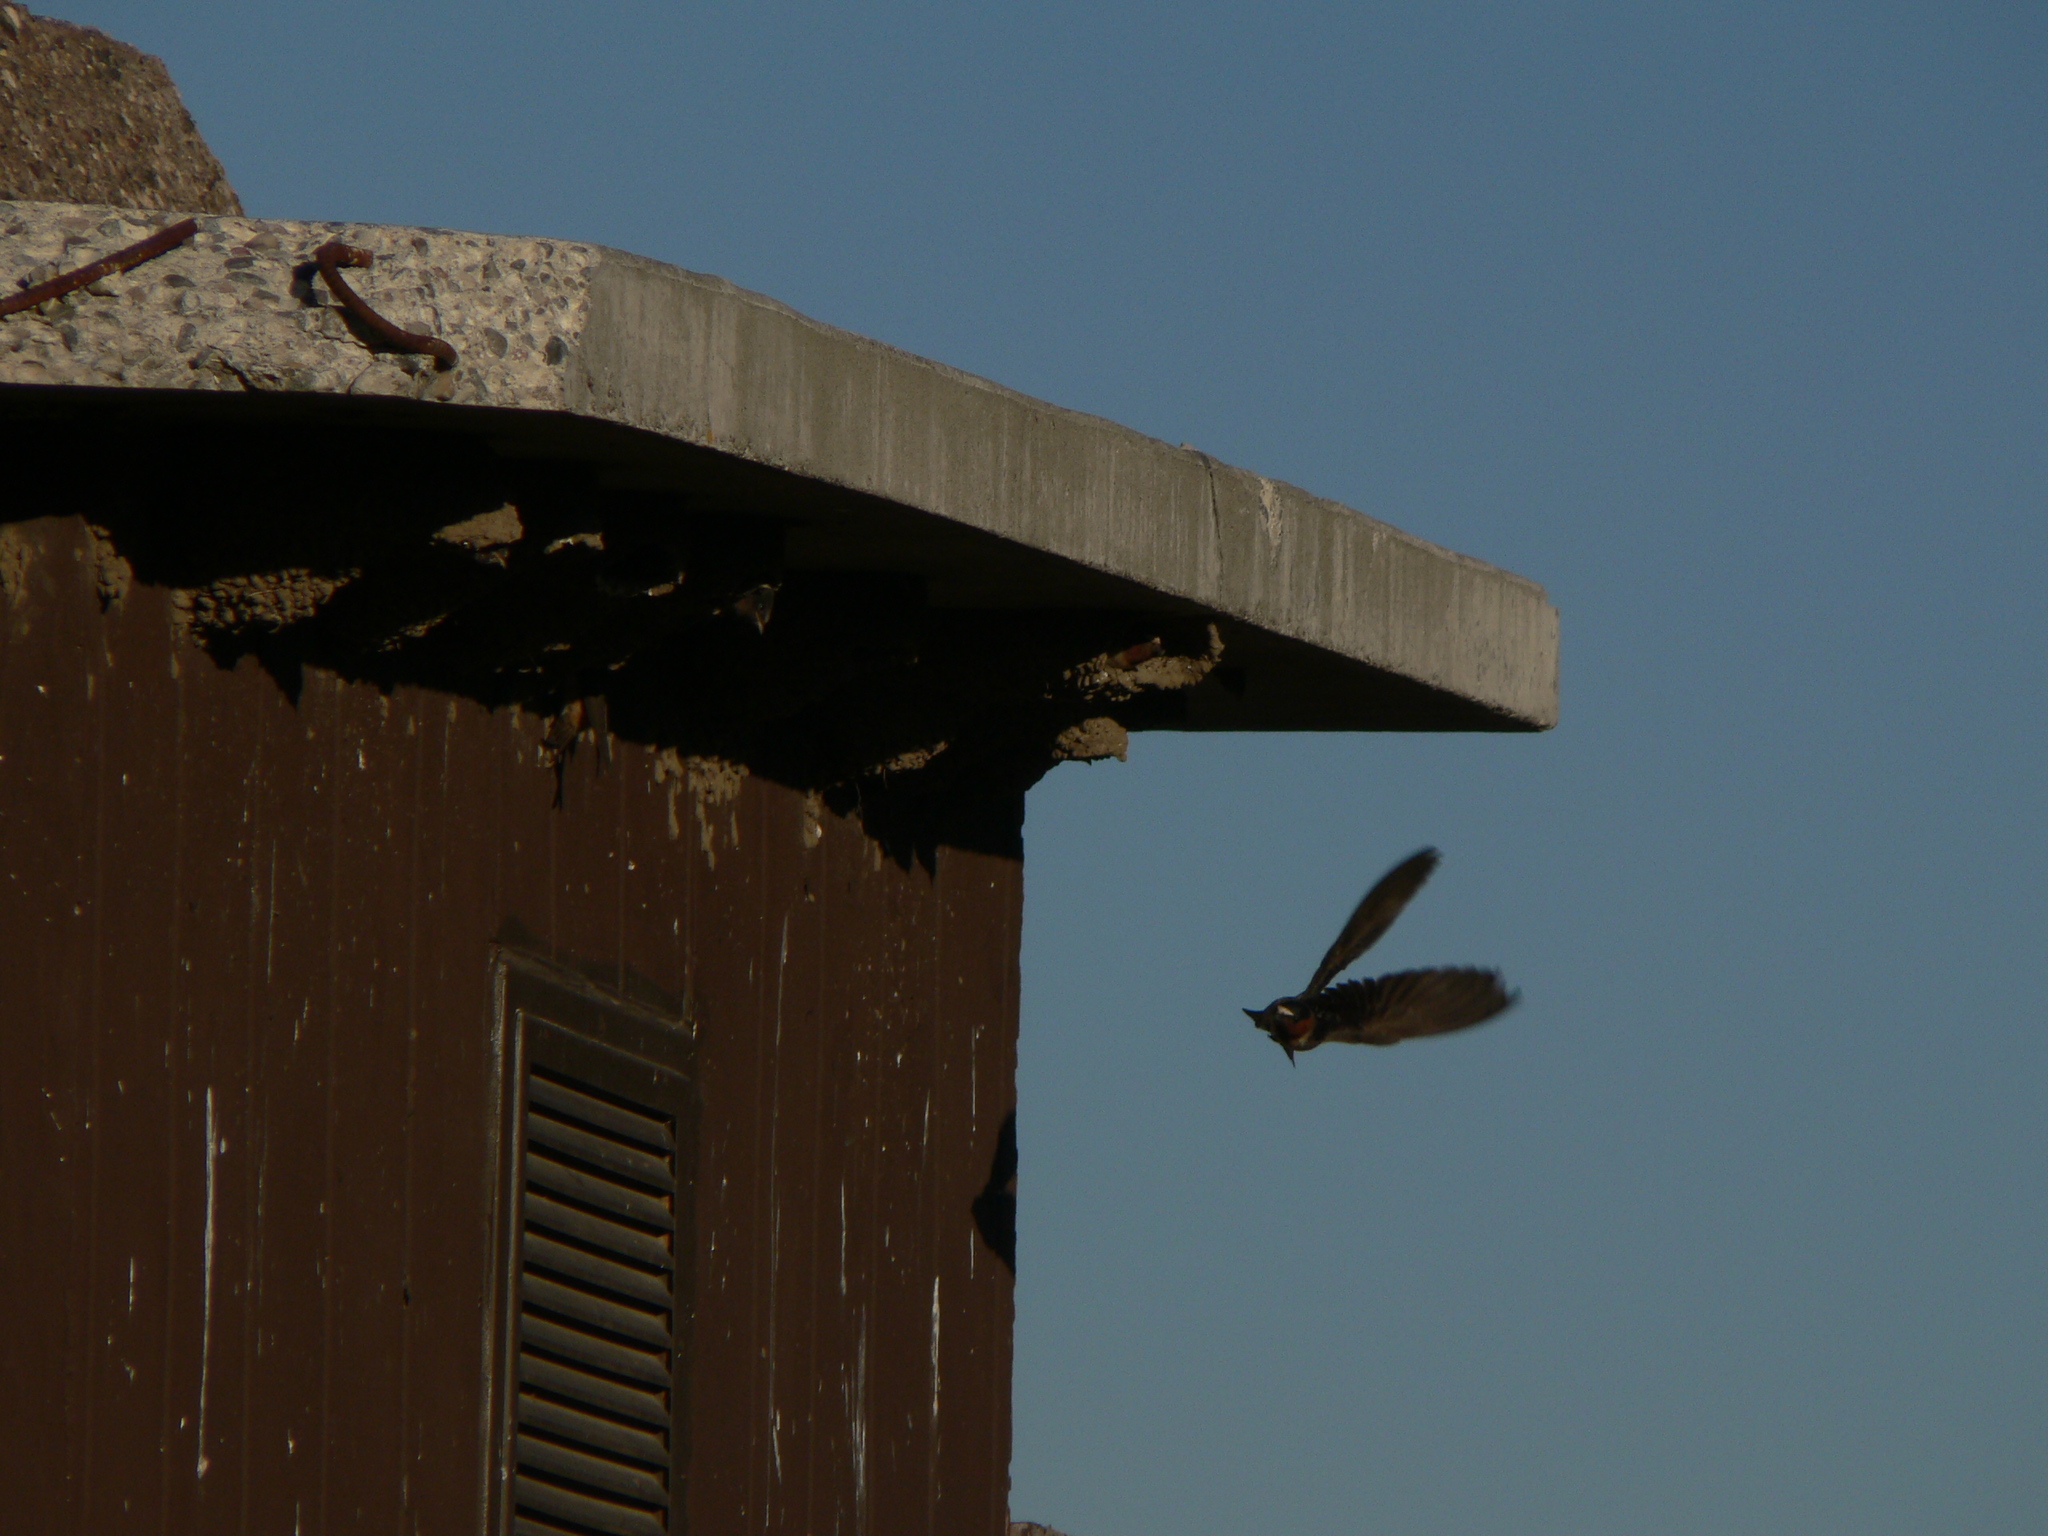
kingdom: Animalia
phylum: Chordata
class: Aves
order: Passeriformes
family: Hirundinidae
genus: Petrochelidon
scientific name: Petrochelidon pyrrhonota
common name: American cliff swallow
